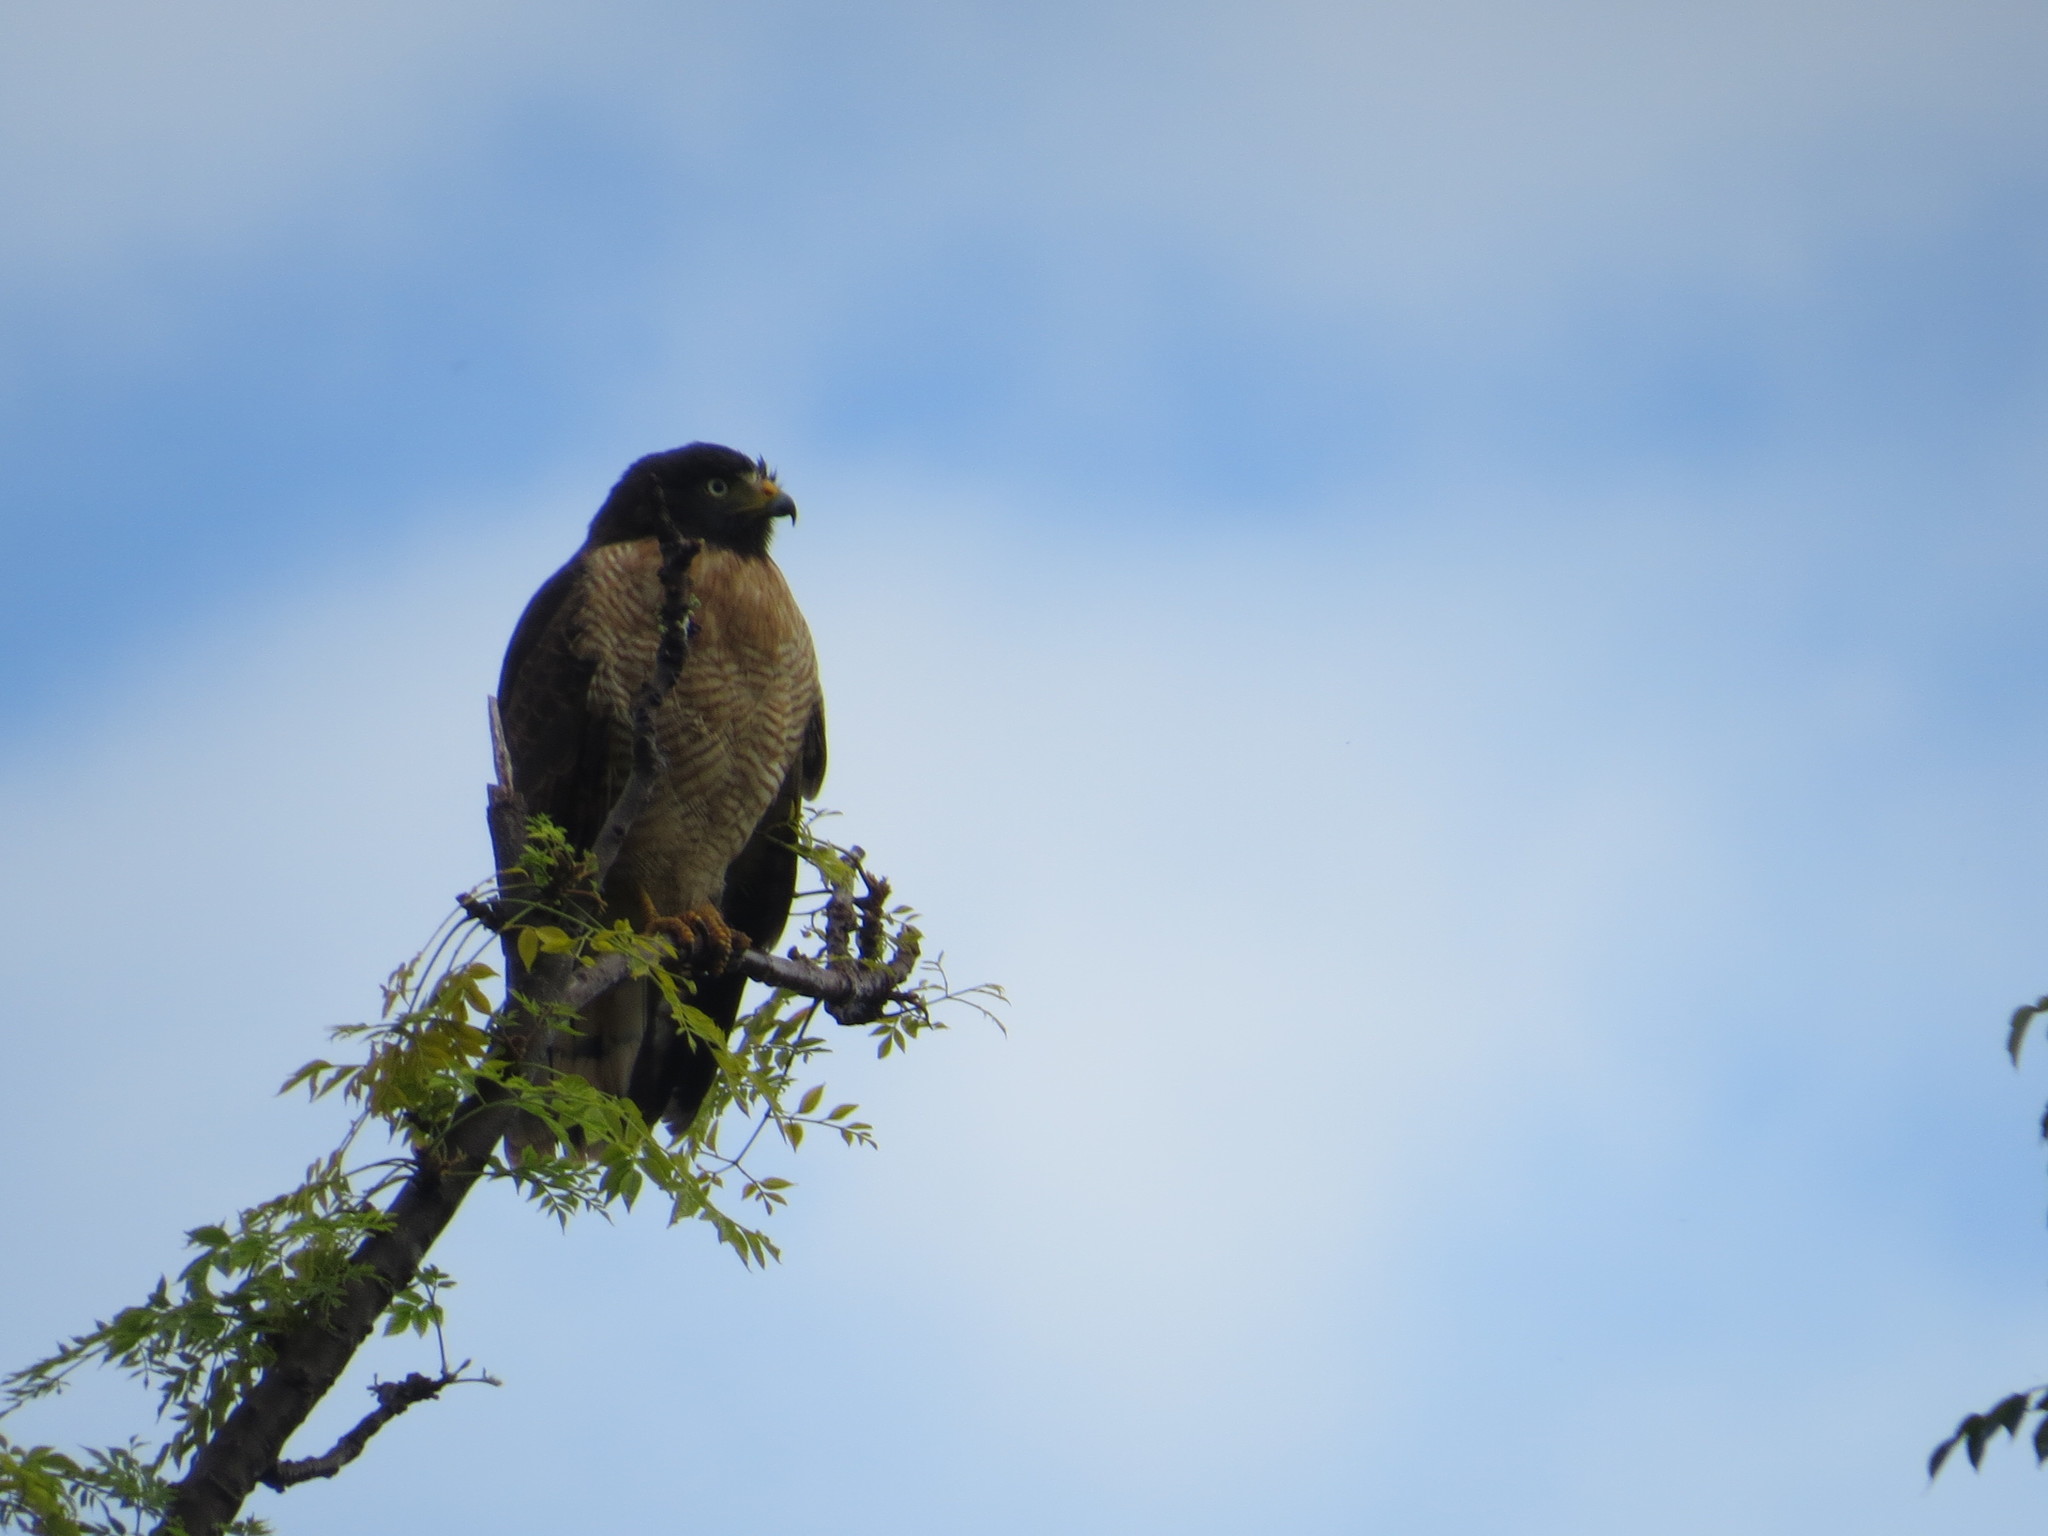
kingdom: Animalia
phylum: Chordata
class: Aves
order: Accipitriformes
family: Accipitridae
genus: Rupornis
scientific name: Rupornis magnirostris
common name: Roadside hawk
